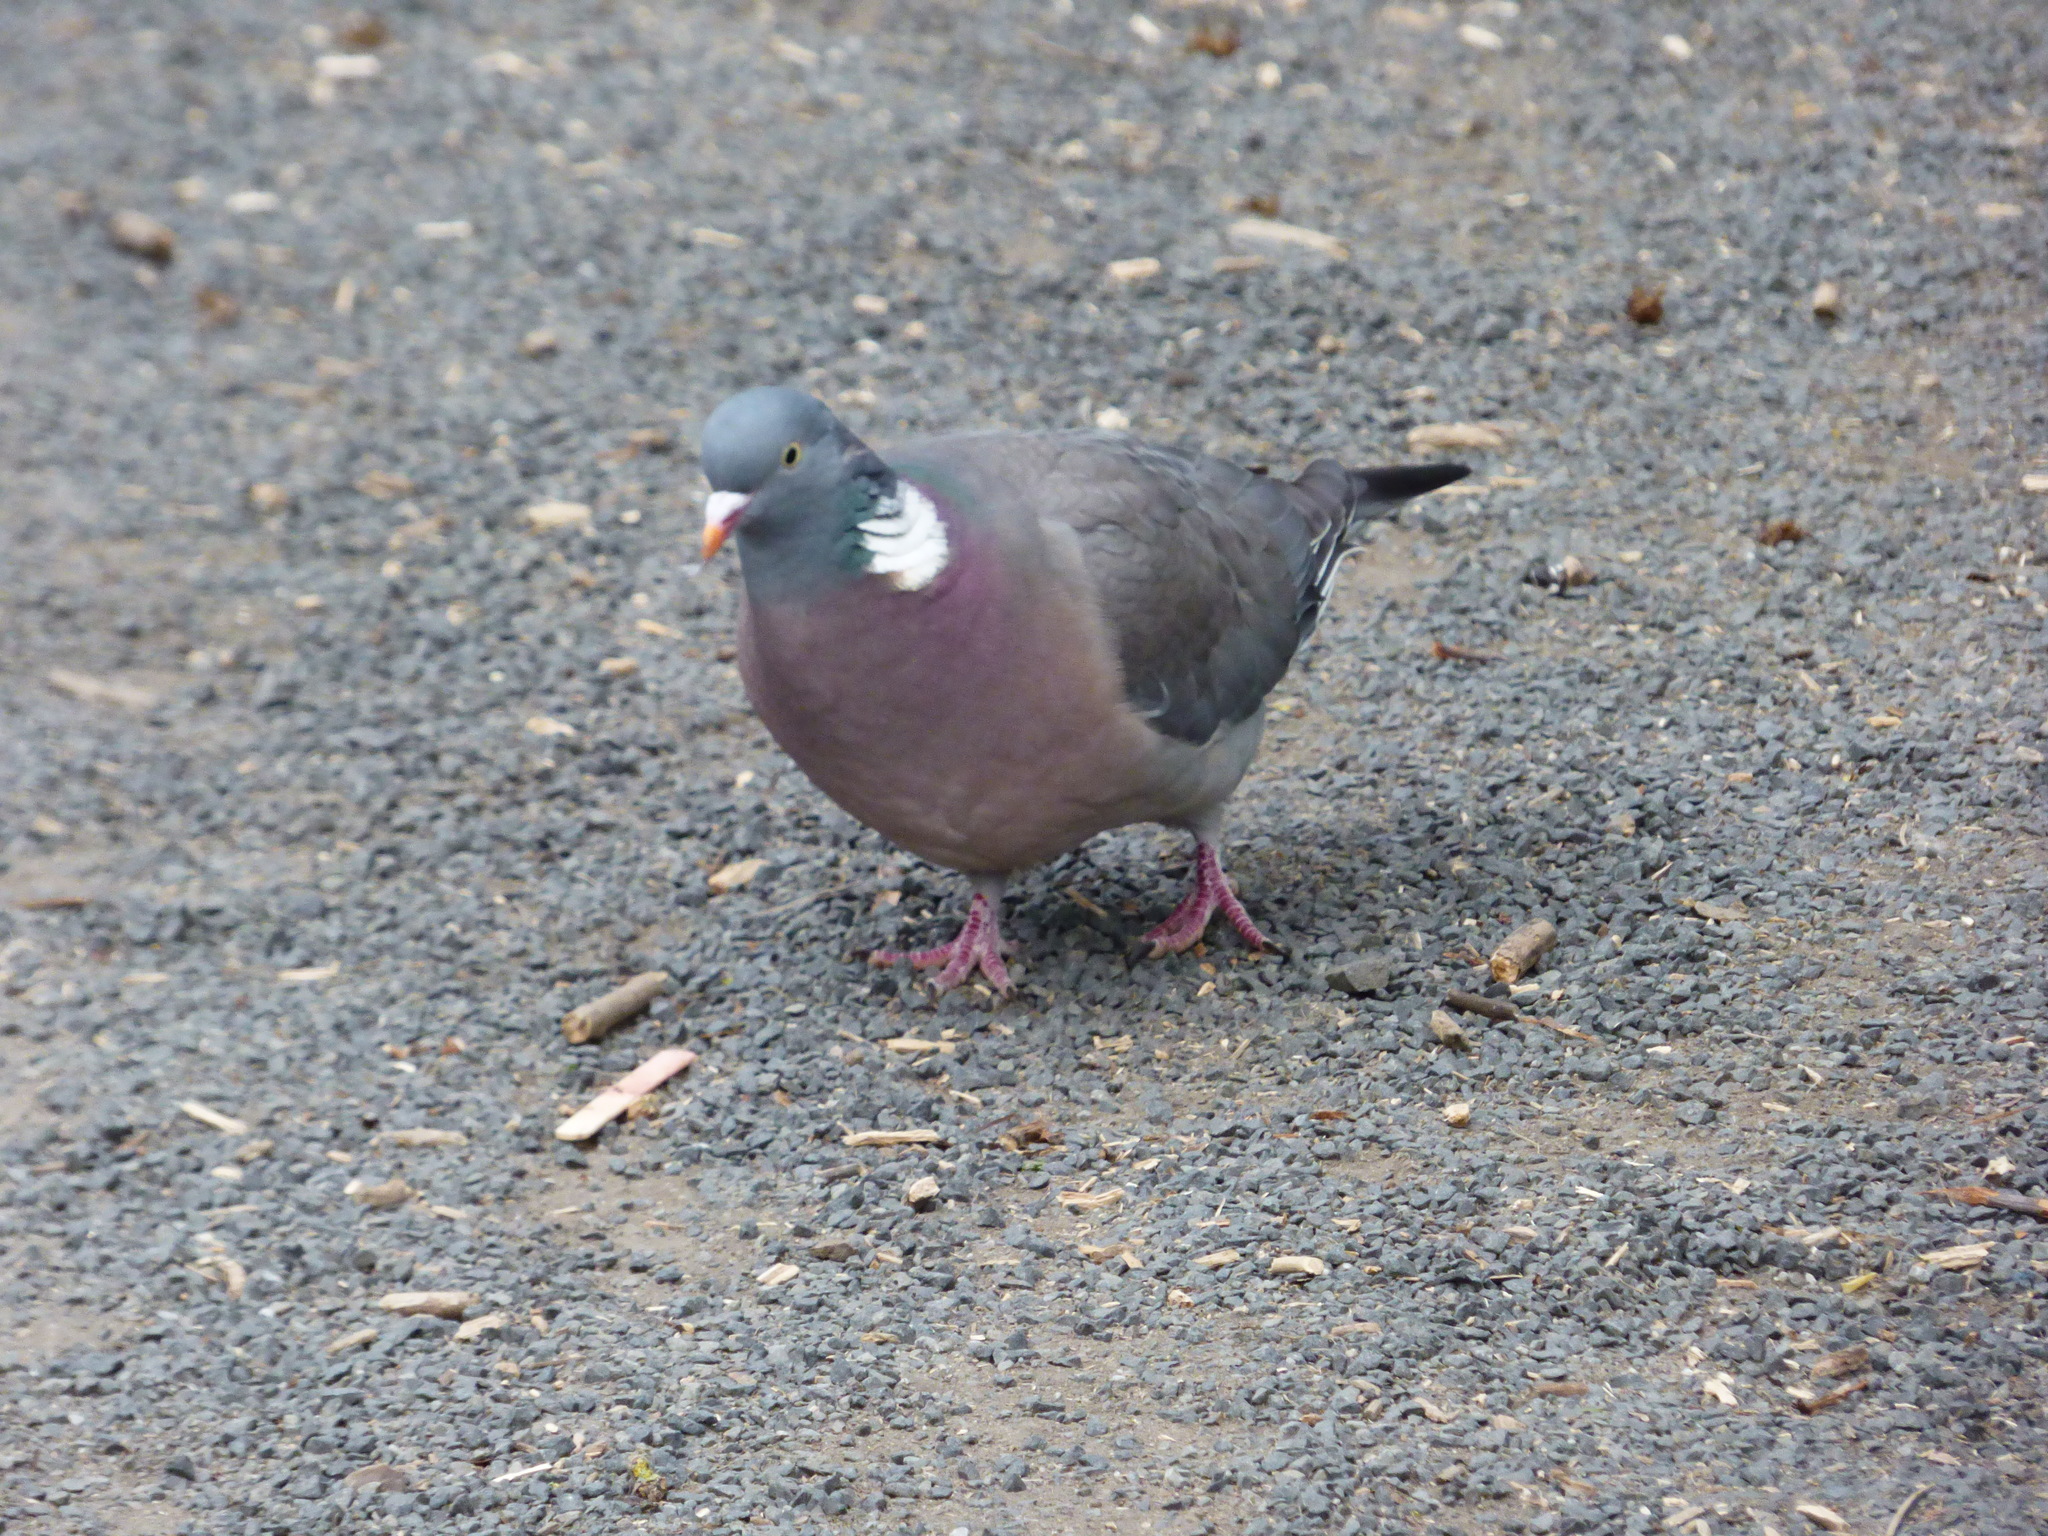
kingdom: Animalia
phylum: Chordata
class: Aves
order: Columbiformes
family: Columbidae
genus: Columba
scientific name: Columba palumbus
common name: Common wood pigeon
